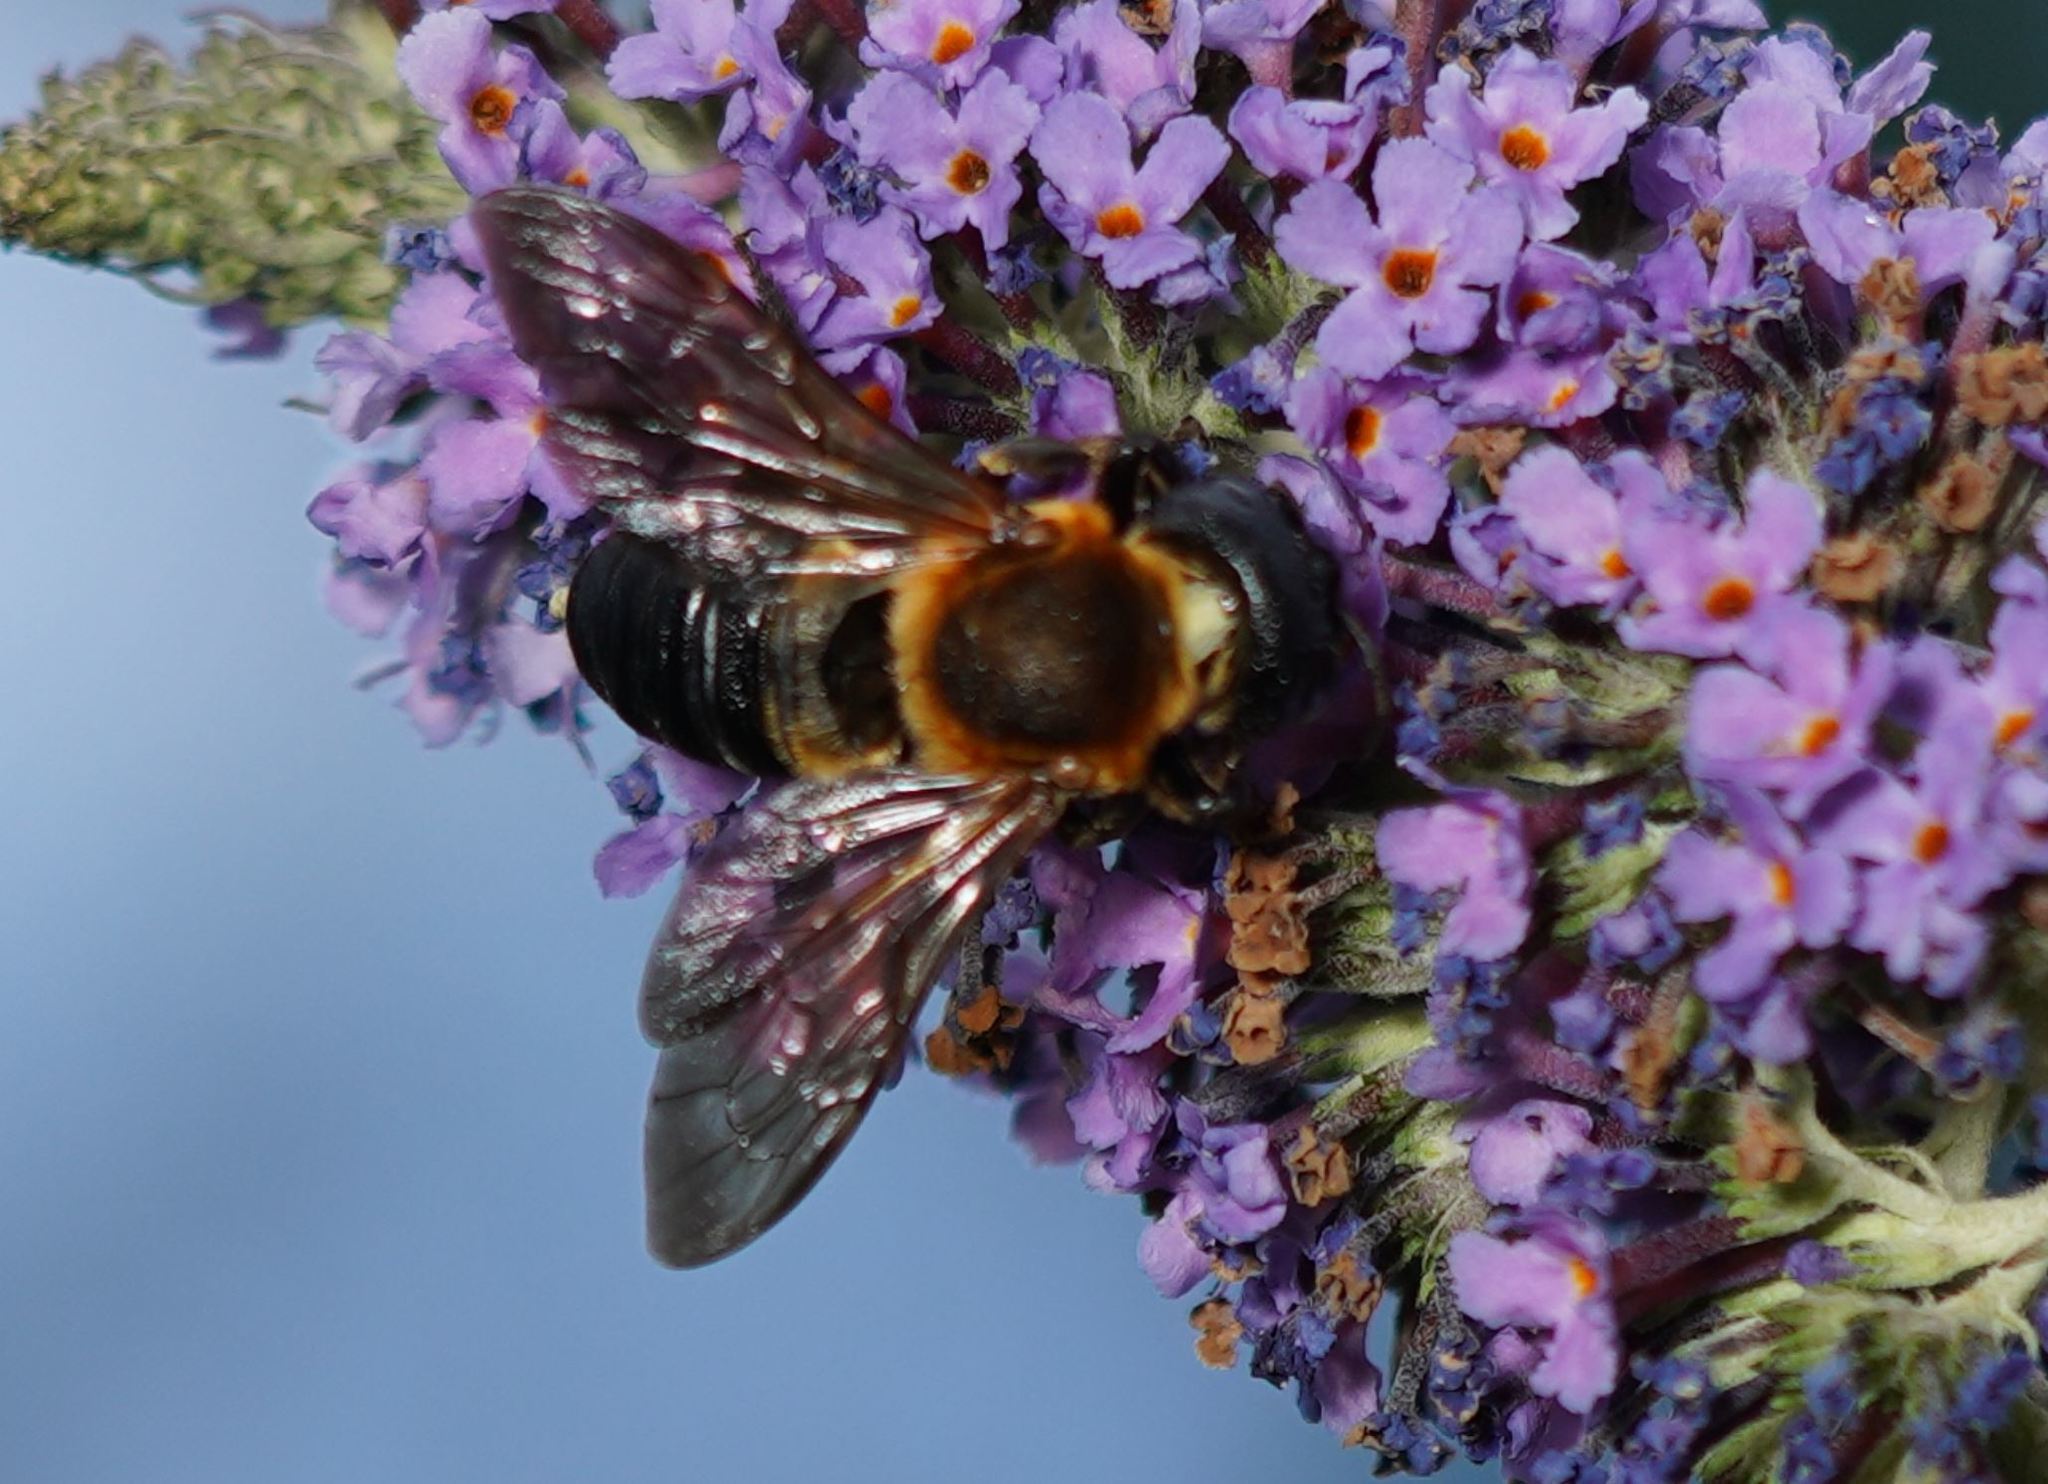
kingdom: Animalia
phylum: Arthropoda
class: Insecta
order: Hymenoptera
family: Megachilidae
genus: Megachile
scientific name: Megachile sculpturalis
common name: Sculptured resin bee
